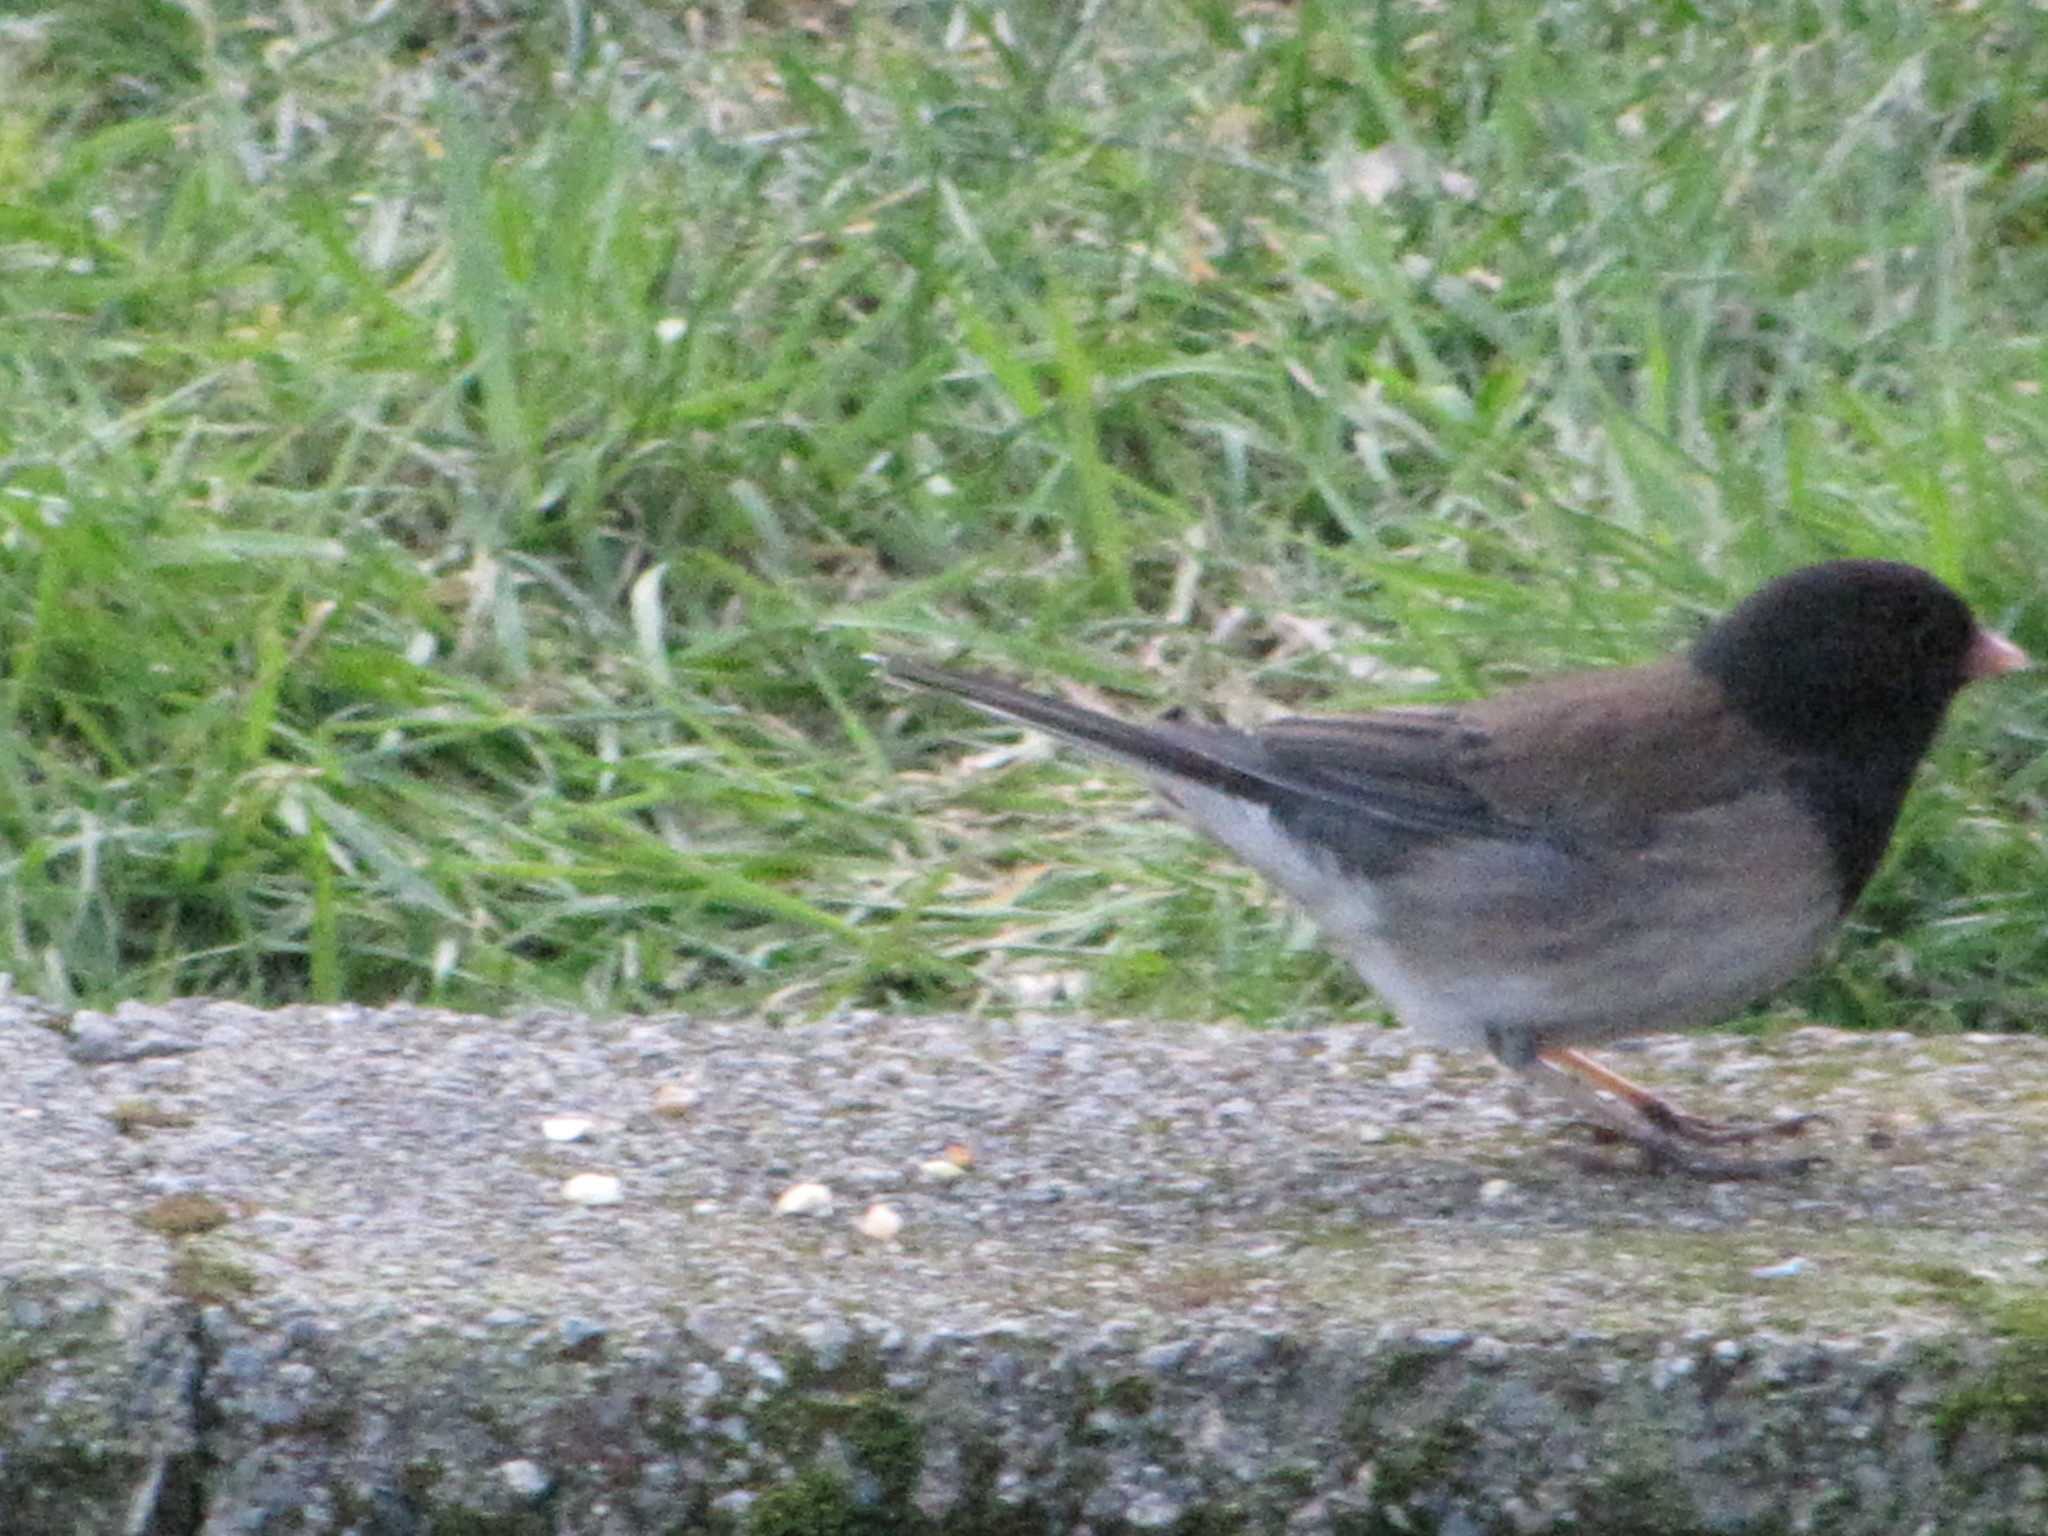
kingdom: Animalia
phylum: Chordata
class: Aves
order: Passeriformes
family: Passerellidae
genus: Junco
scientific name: Junco hyemalis
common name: Dark-eyed junco
